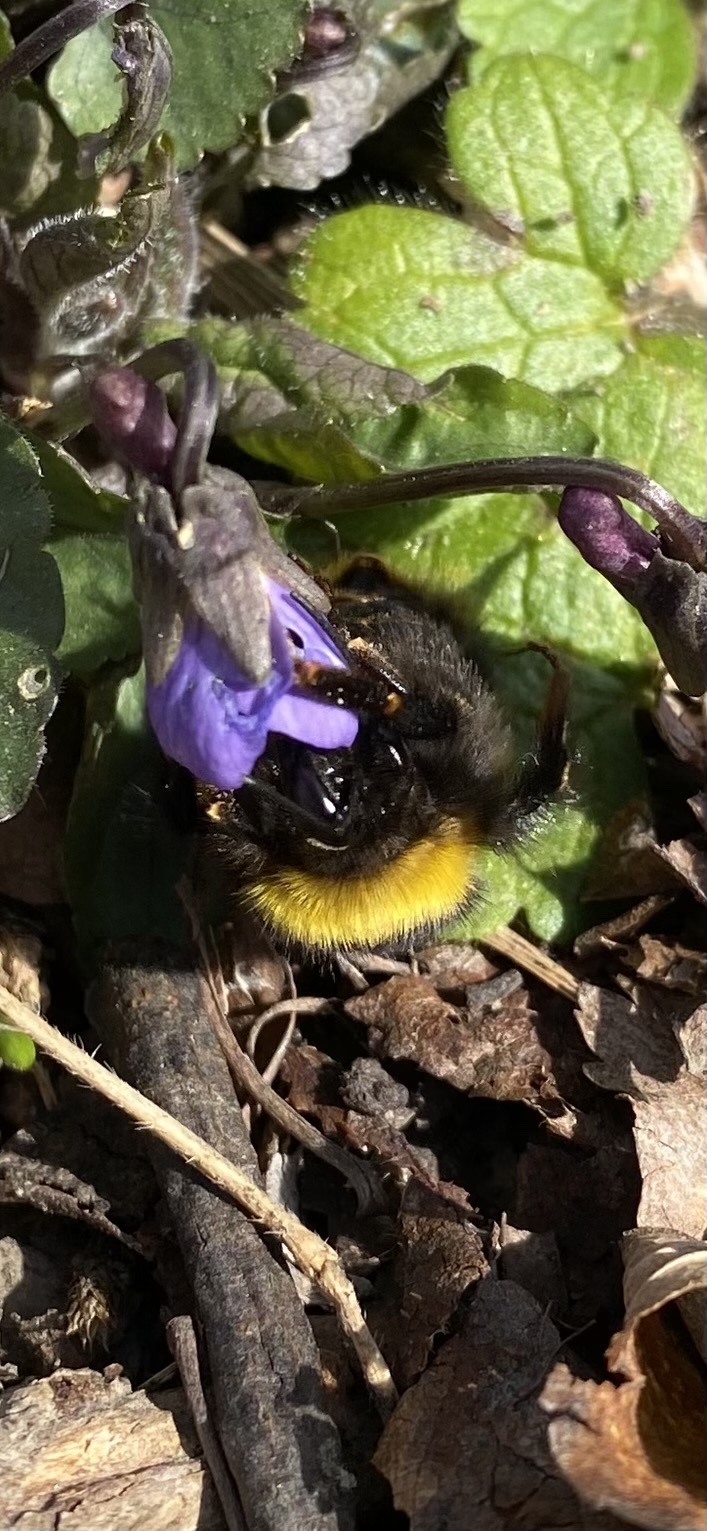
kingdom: Animalia
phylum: Arthropoda
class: Insecta
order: Hymenoptera
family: Apidae
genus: Bombus
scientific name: Bombus haematurus
